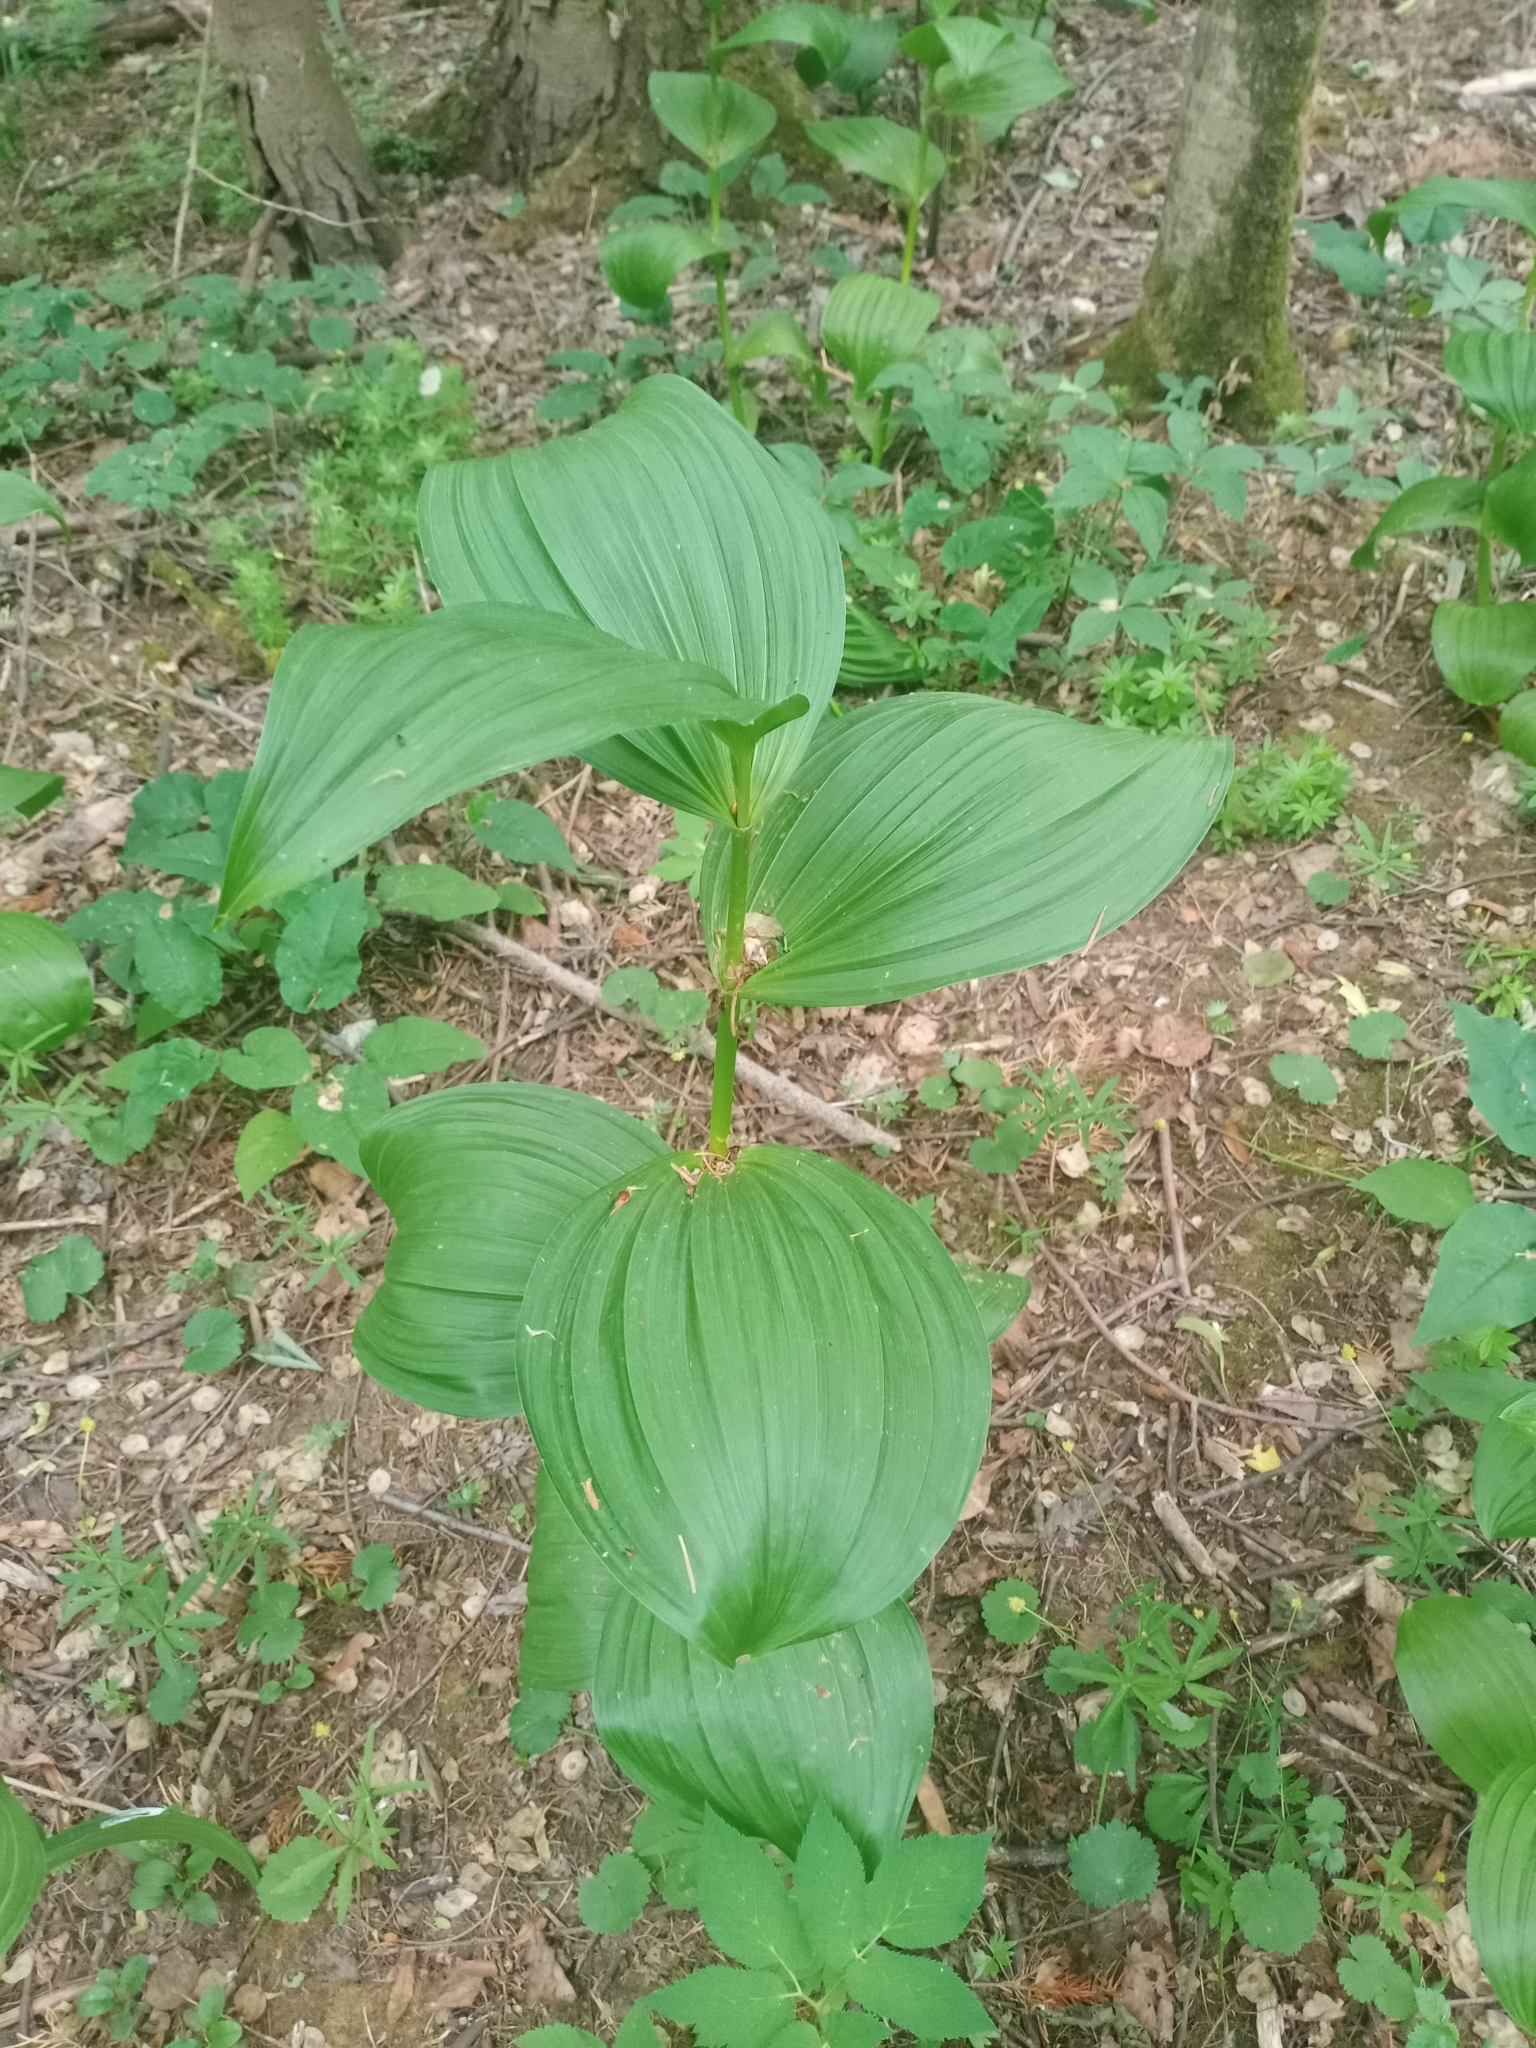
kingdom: Plantae
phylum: Tracheophyta
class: Liliopsida
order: Liliales
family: Melanthiaceae
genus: Veratrum
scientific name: Veratrum lobelianum
